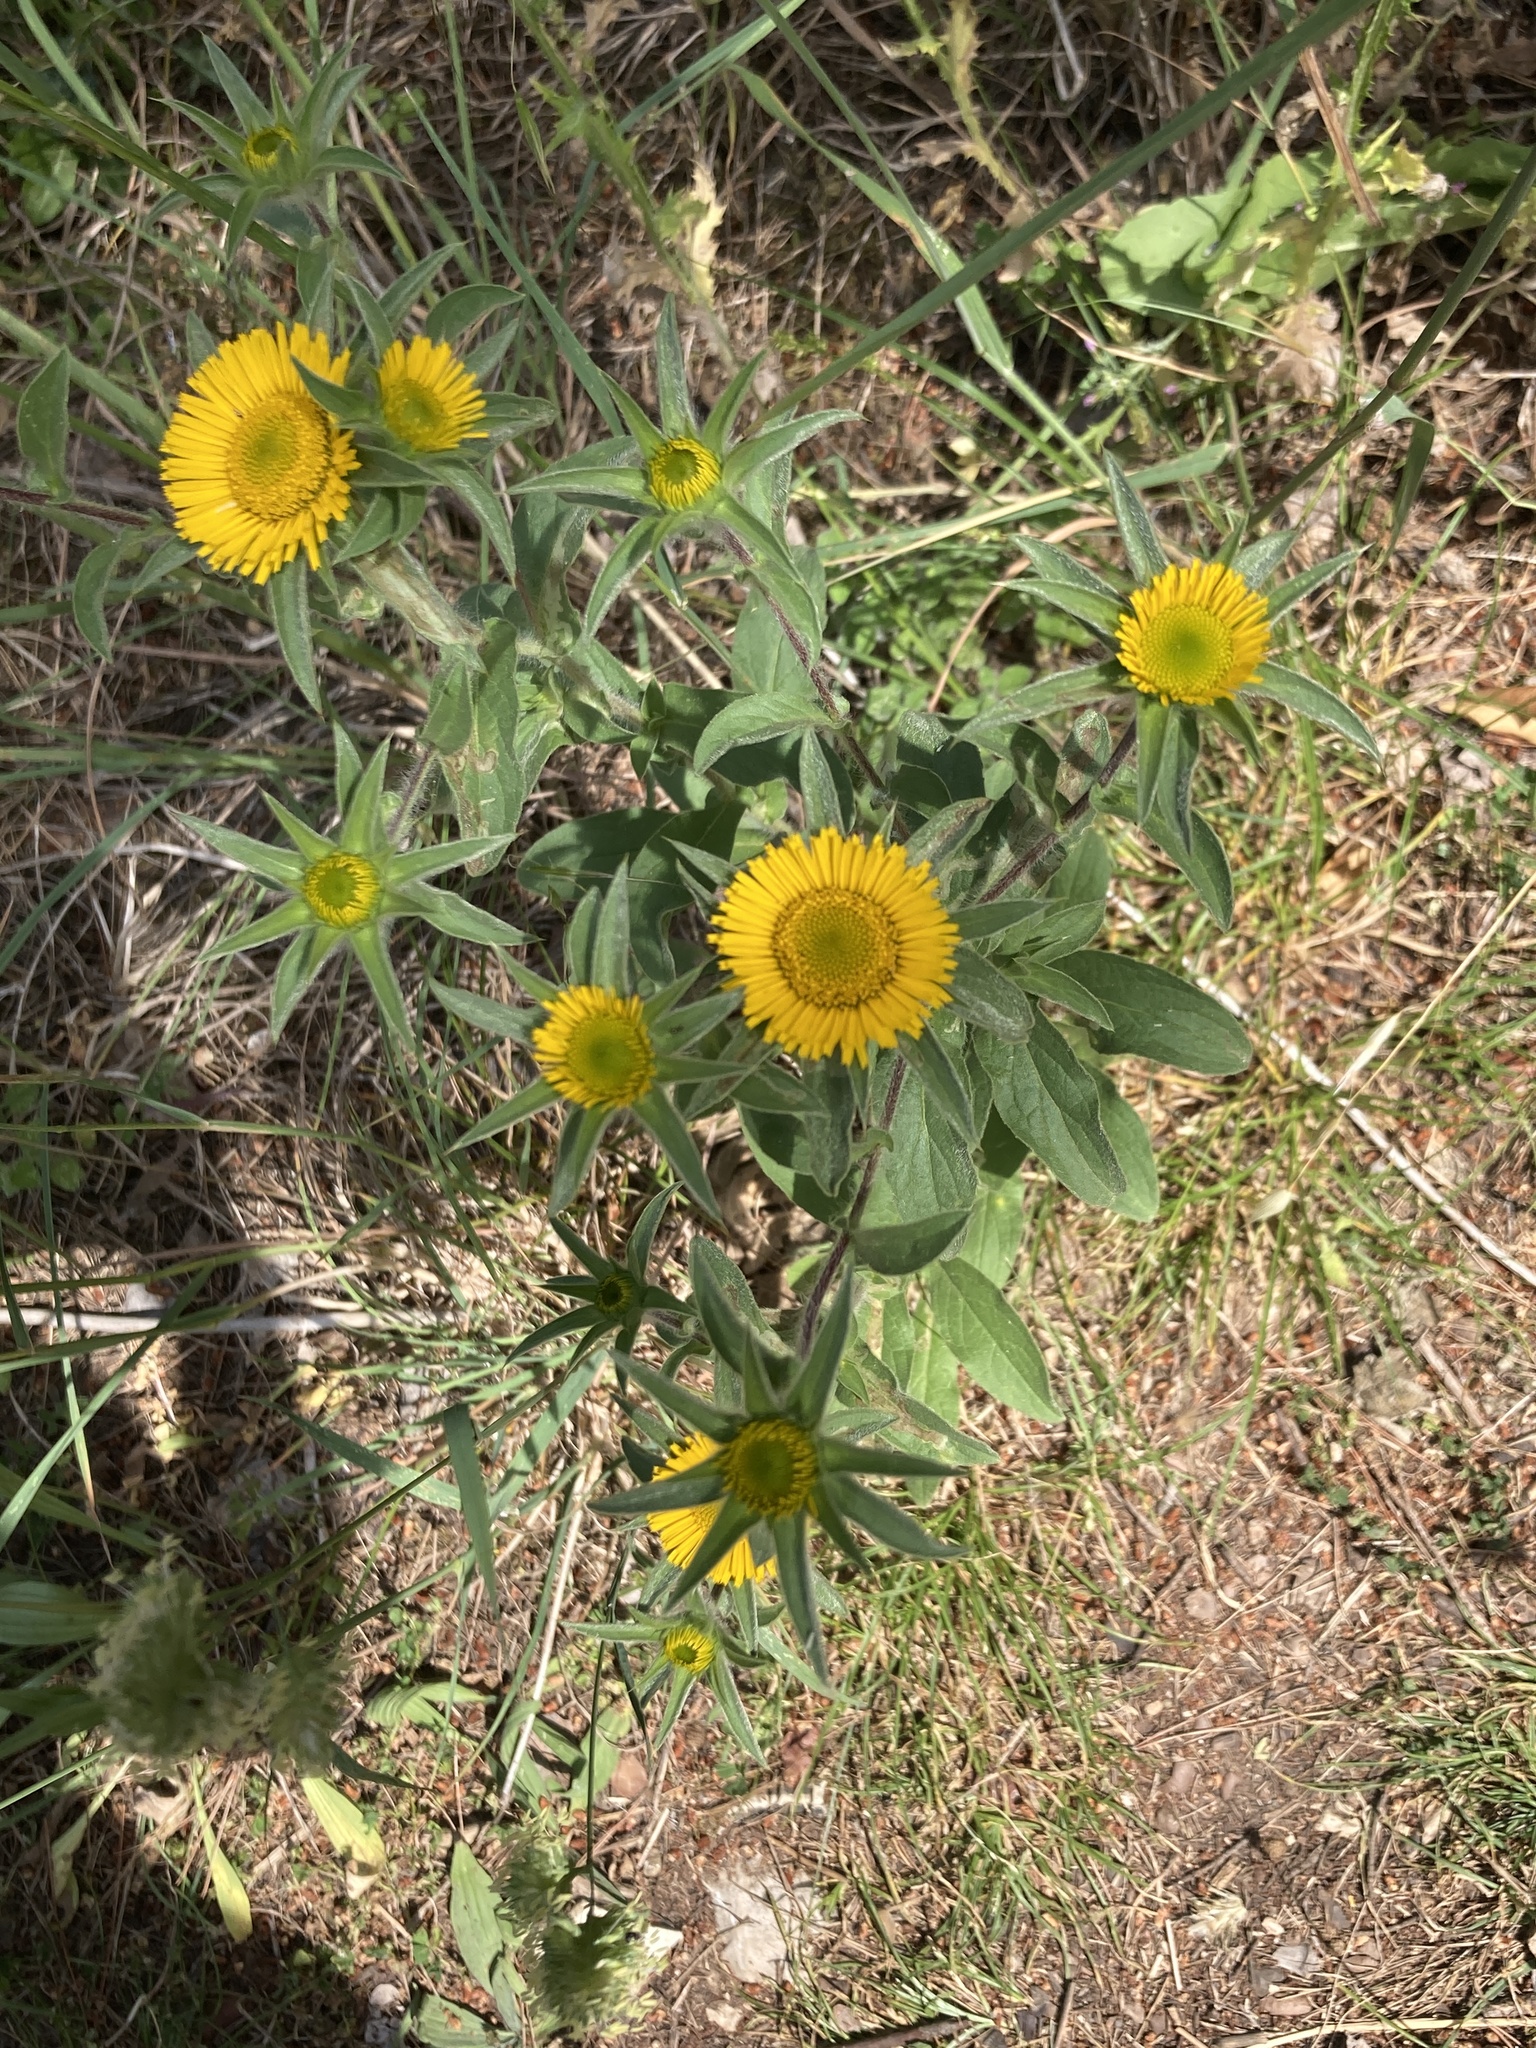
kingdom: Plantae
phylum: Tracheophyta
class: Magnoliopsida
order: Asterales
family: Asteraceae
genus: Pallenis
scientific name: Pallenis spinosa
